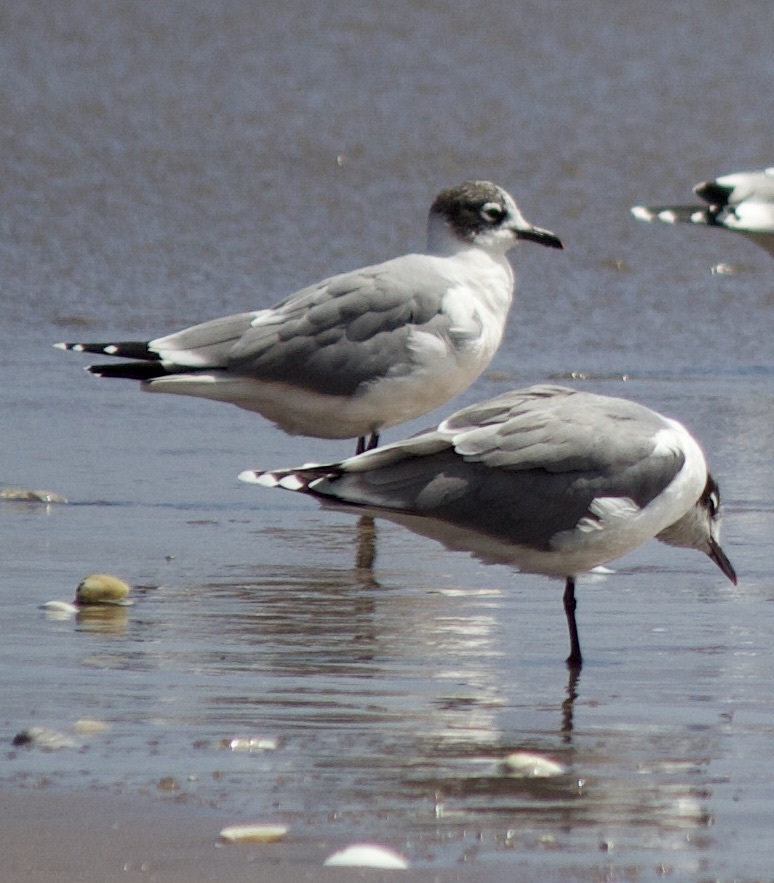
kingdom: Animalia
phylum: Chordata
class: Aves
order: Charadriiformes
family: Laridae
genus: Leucophaeus
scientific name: Leucophaeus pipixcan
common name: Franklin's gull
